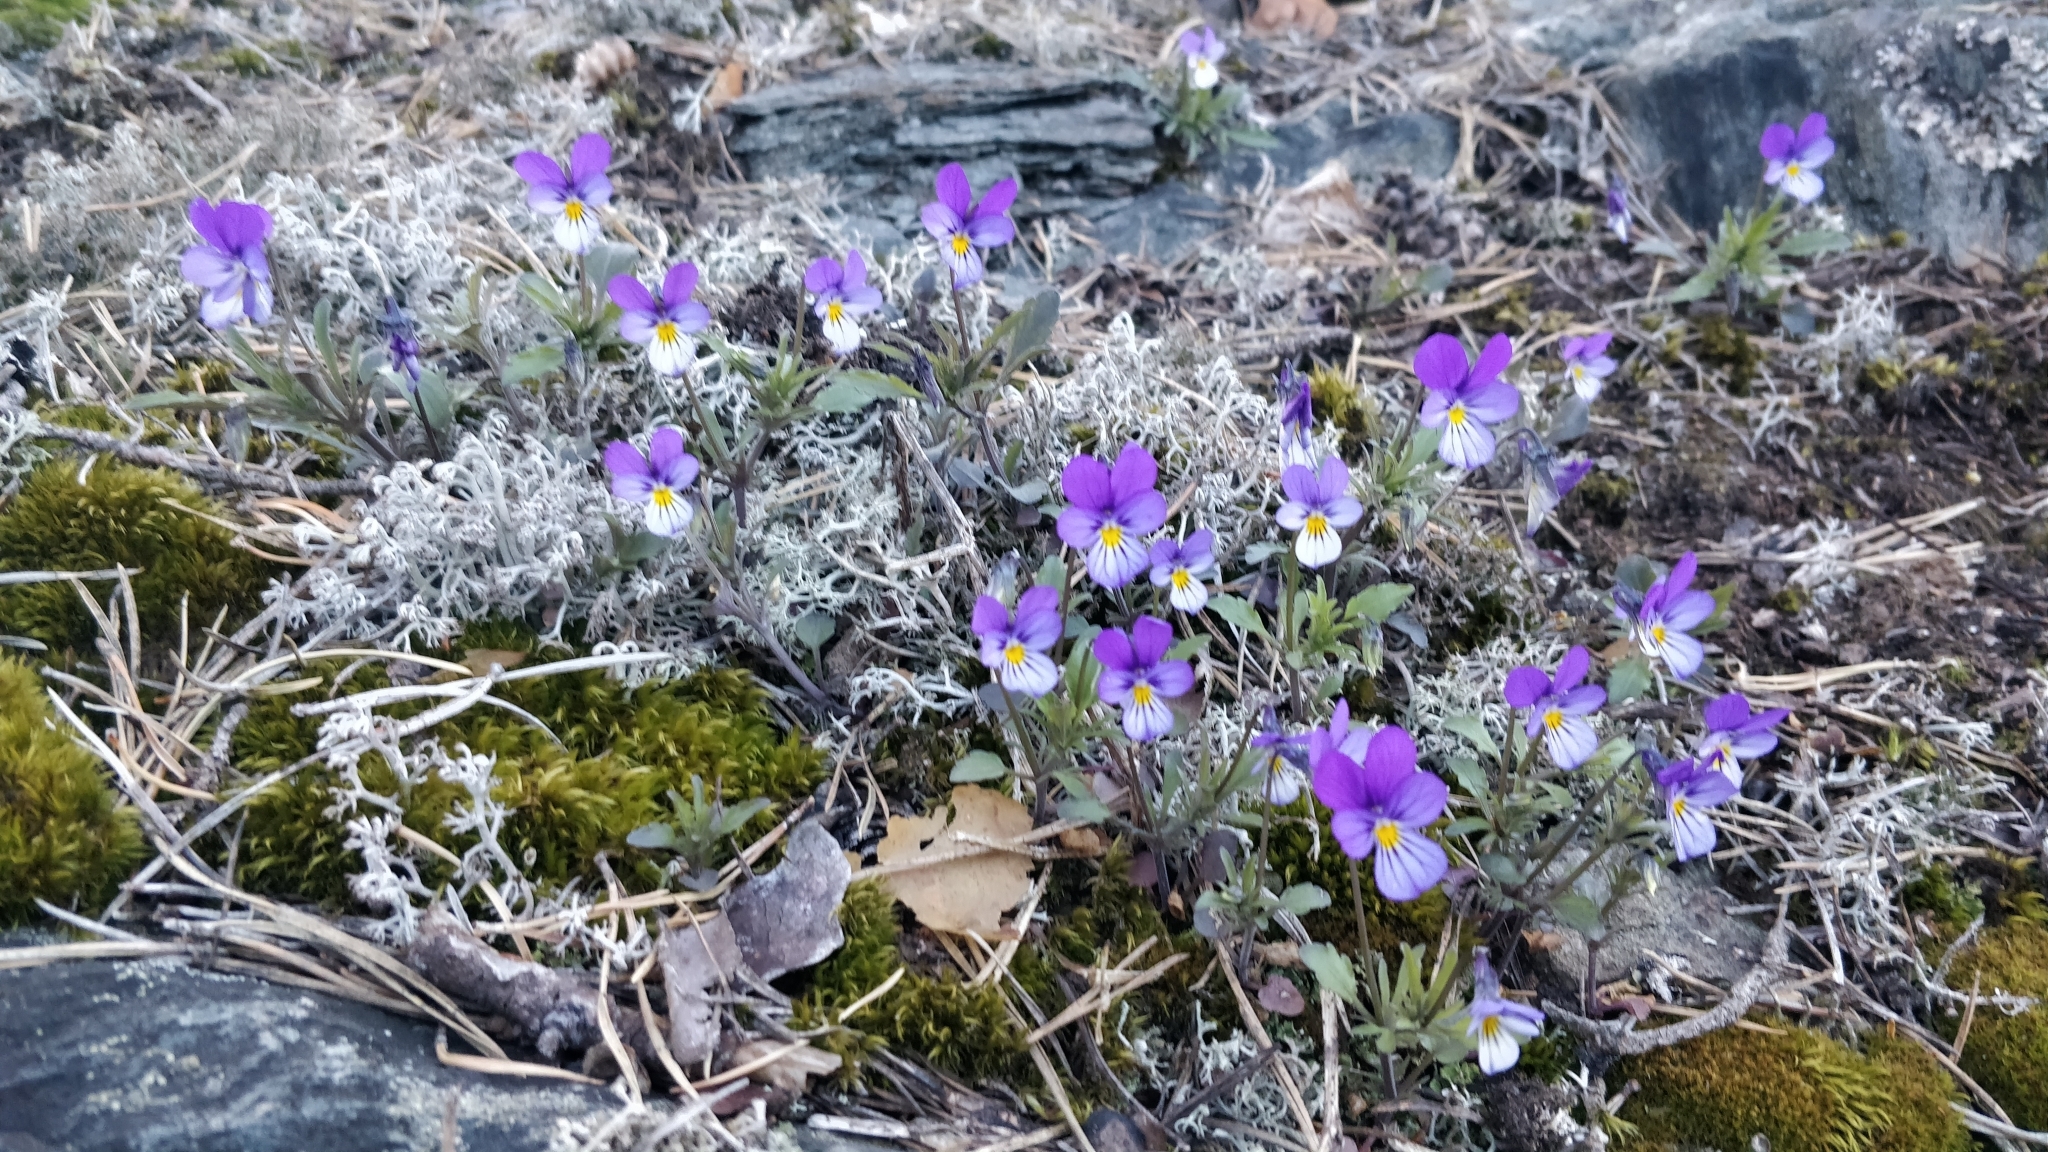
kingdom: Plantae
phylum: Tracheophyta
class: Magnoliopsida
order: Malpighiales
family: Violaceae
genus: Viola
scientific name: Viola tricolor
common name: Pansy
